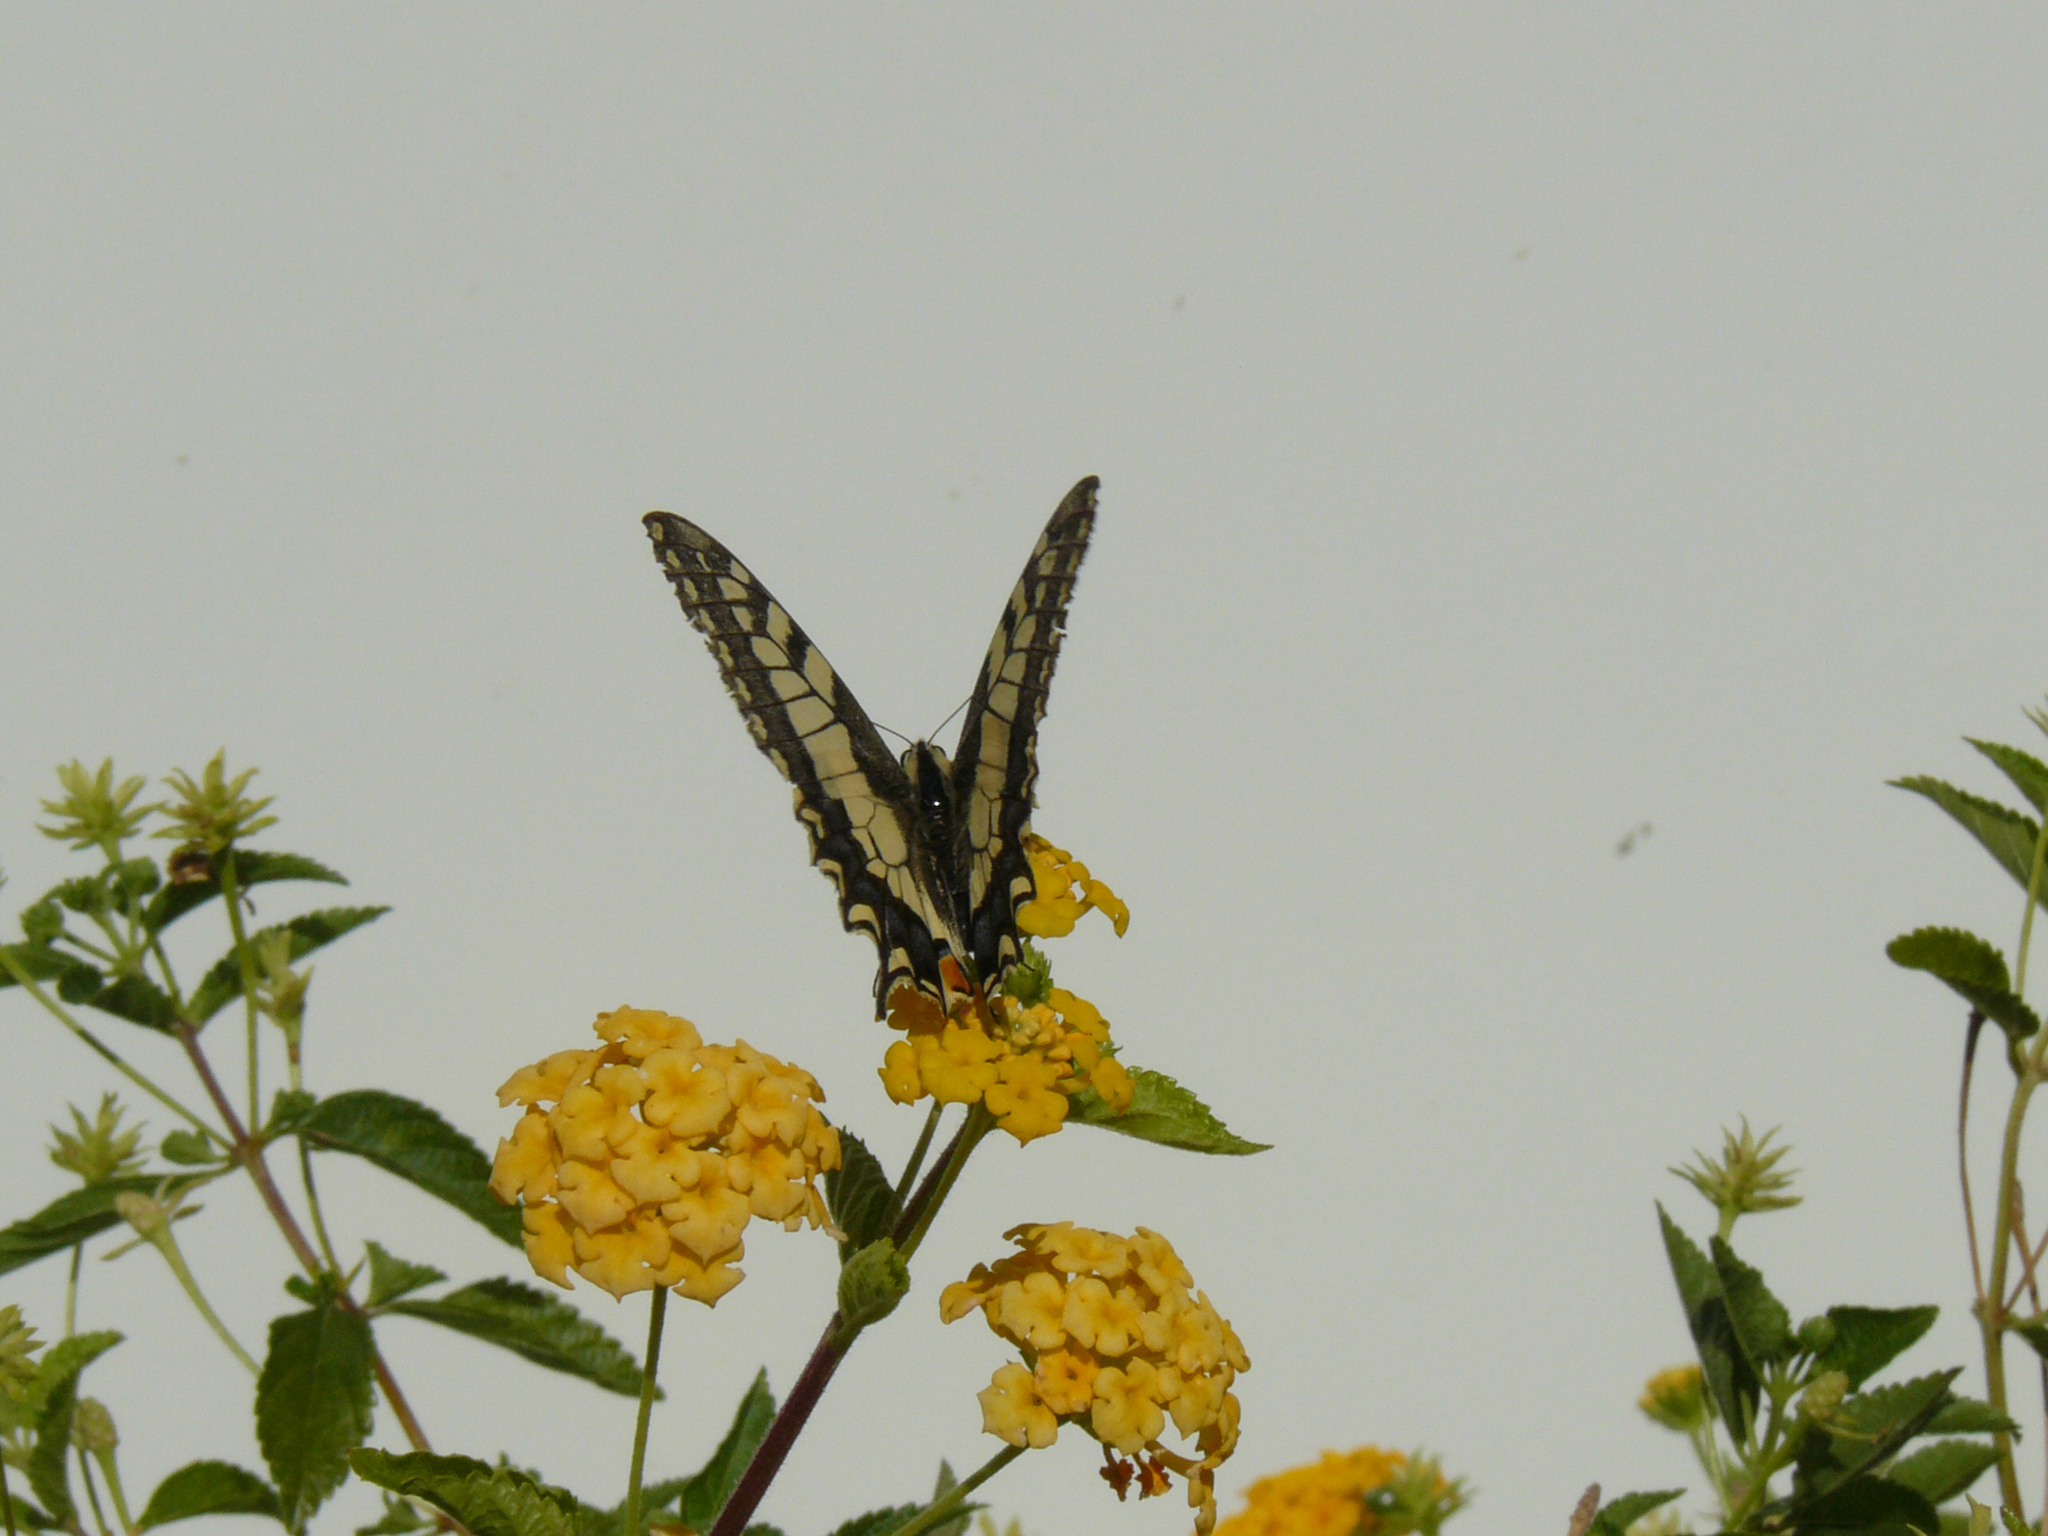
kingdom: Animalia
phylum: Arthropoda
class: Insecta
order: Lepidoptera
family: Papilionidae
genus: Papilio
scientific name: Papilio machaon
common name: Swallowtail
